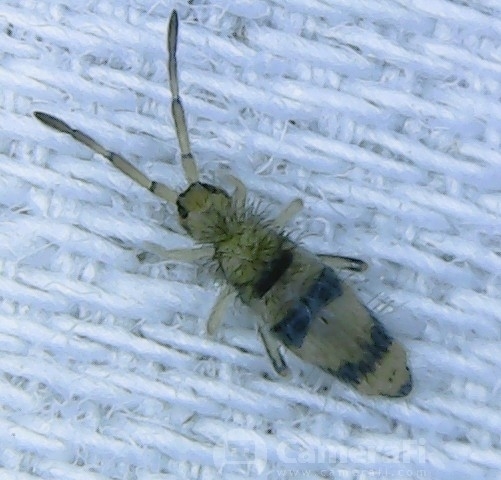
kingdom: Animalia
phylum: Arthropoda
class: Collembola
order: Entomobryomorpha
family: Entomobryidae
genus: Entomobrya
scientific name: Entomobrya triangularis
